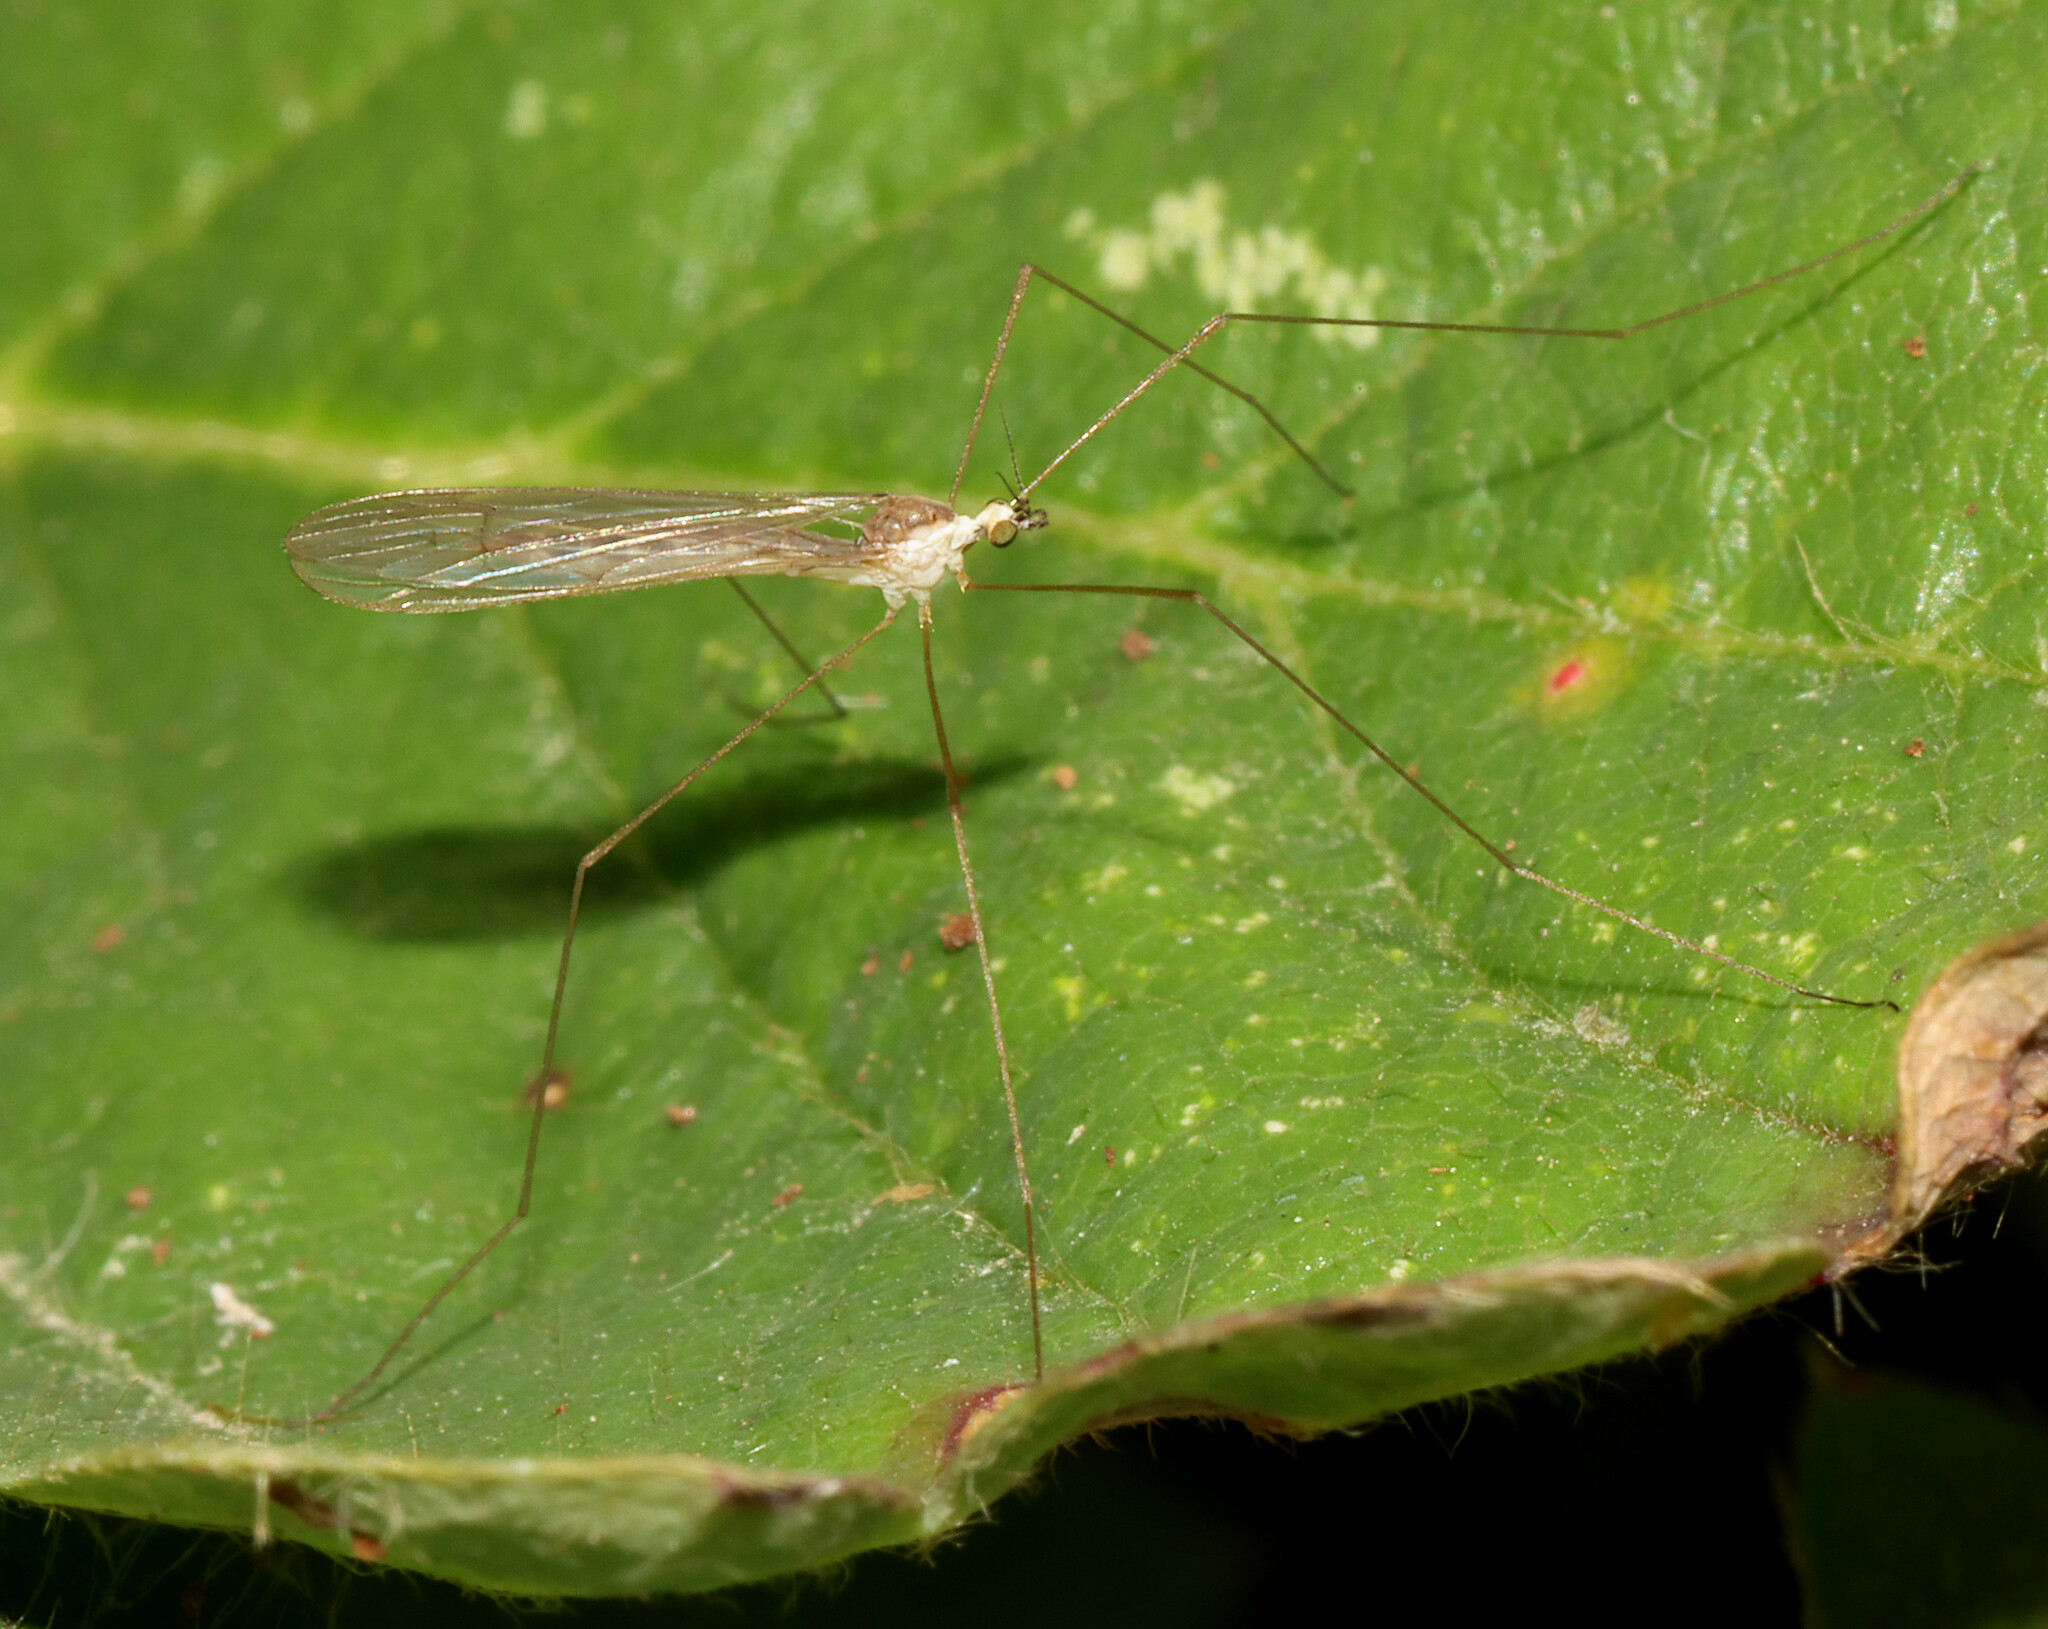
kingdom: Animalia
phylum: Arthropoda
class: Insecta
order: Diptera
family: Limoniidae
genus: Gonomyia
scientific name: Gonomyia subcinerea
